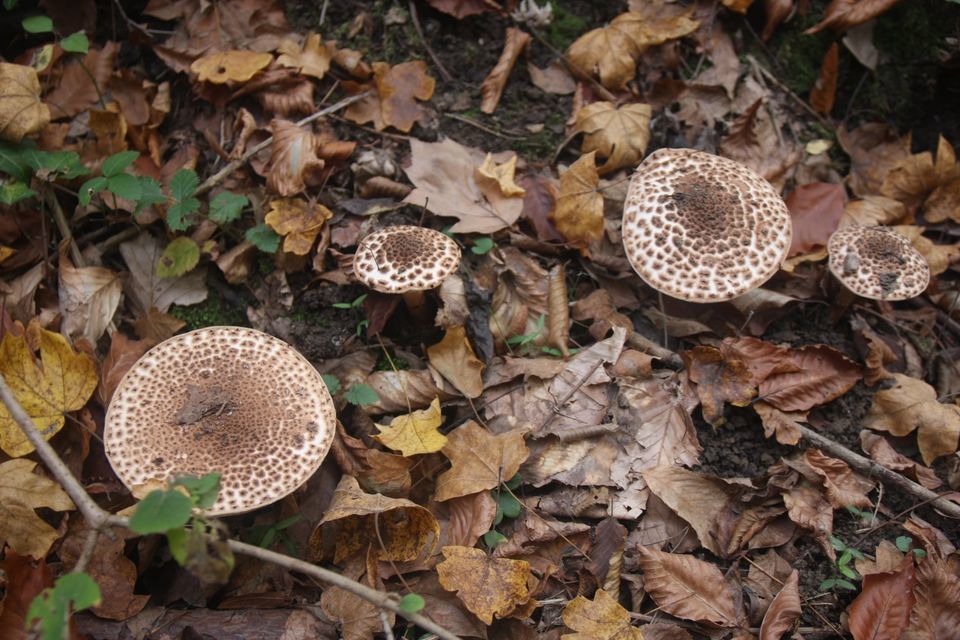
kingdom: Fungi
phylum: Basidiomycota
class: Agaricomycetes
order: Agaricales
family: Agaricaceae
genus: Echinoderma
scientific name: Echinoderma asperum
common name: Freckled dapperling
